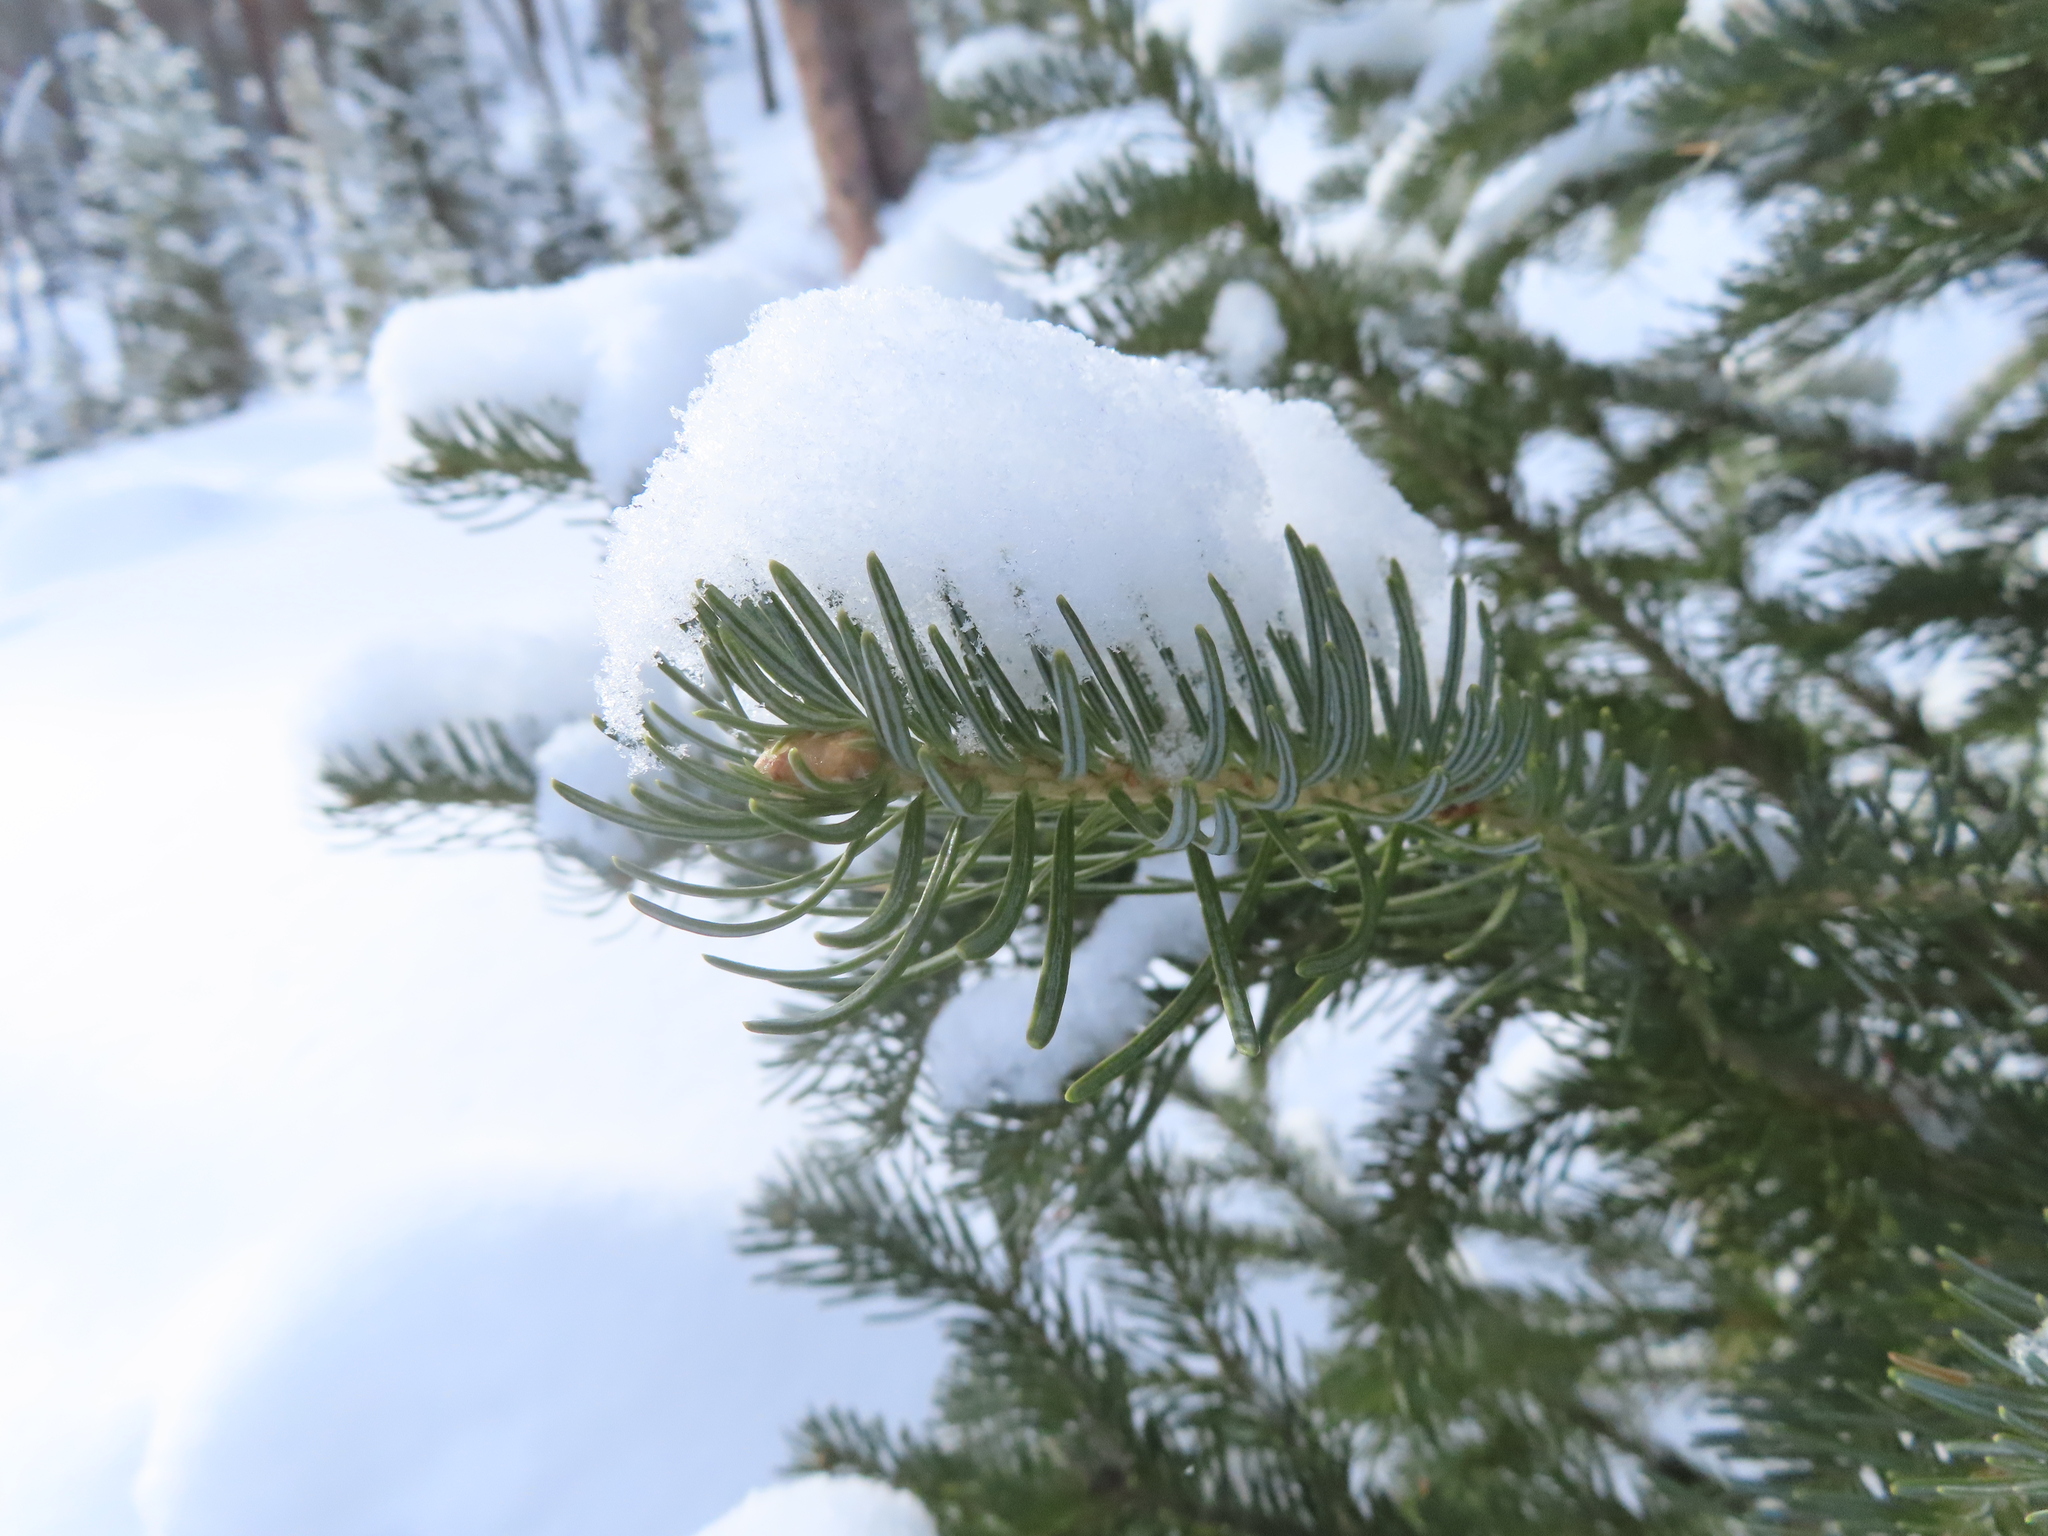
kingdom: Plantae
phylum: Tracheophyta
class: Pinopsida
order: Pinales
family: Pinaceae
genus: Abies
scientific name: Abies lasiocarpa
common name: Subalpine fir
